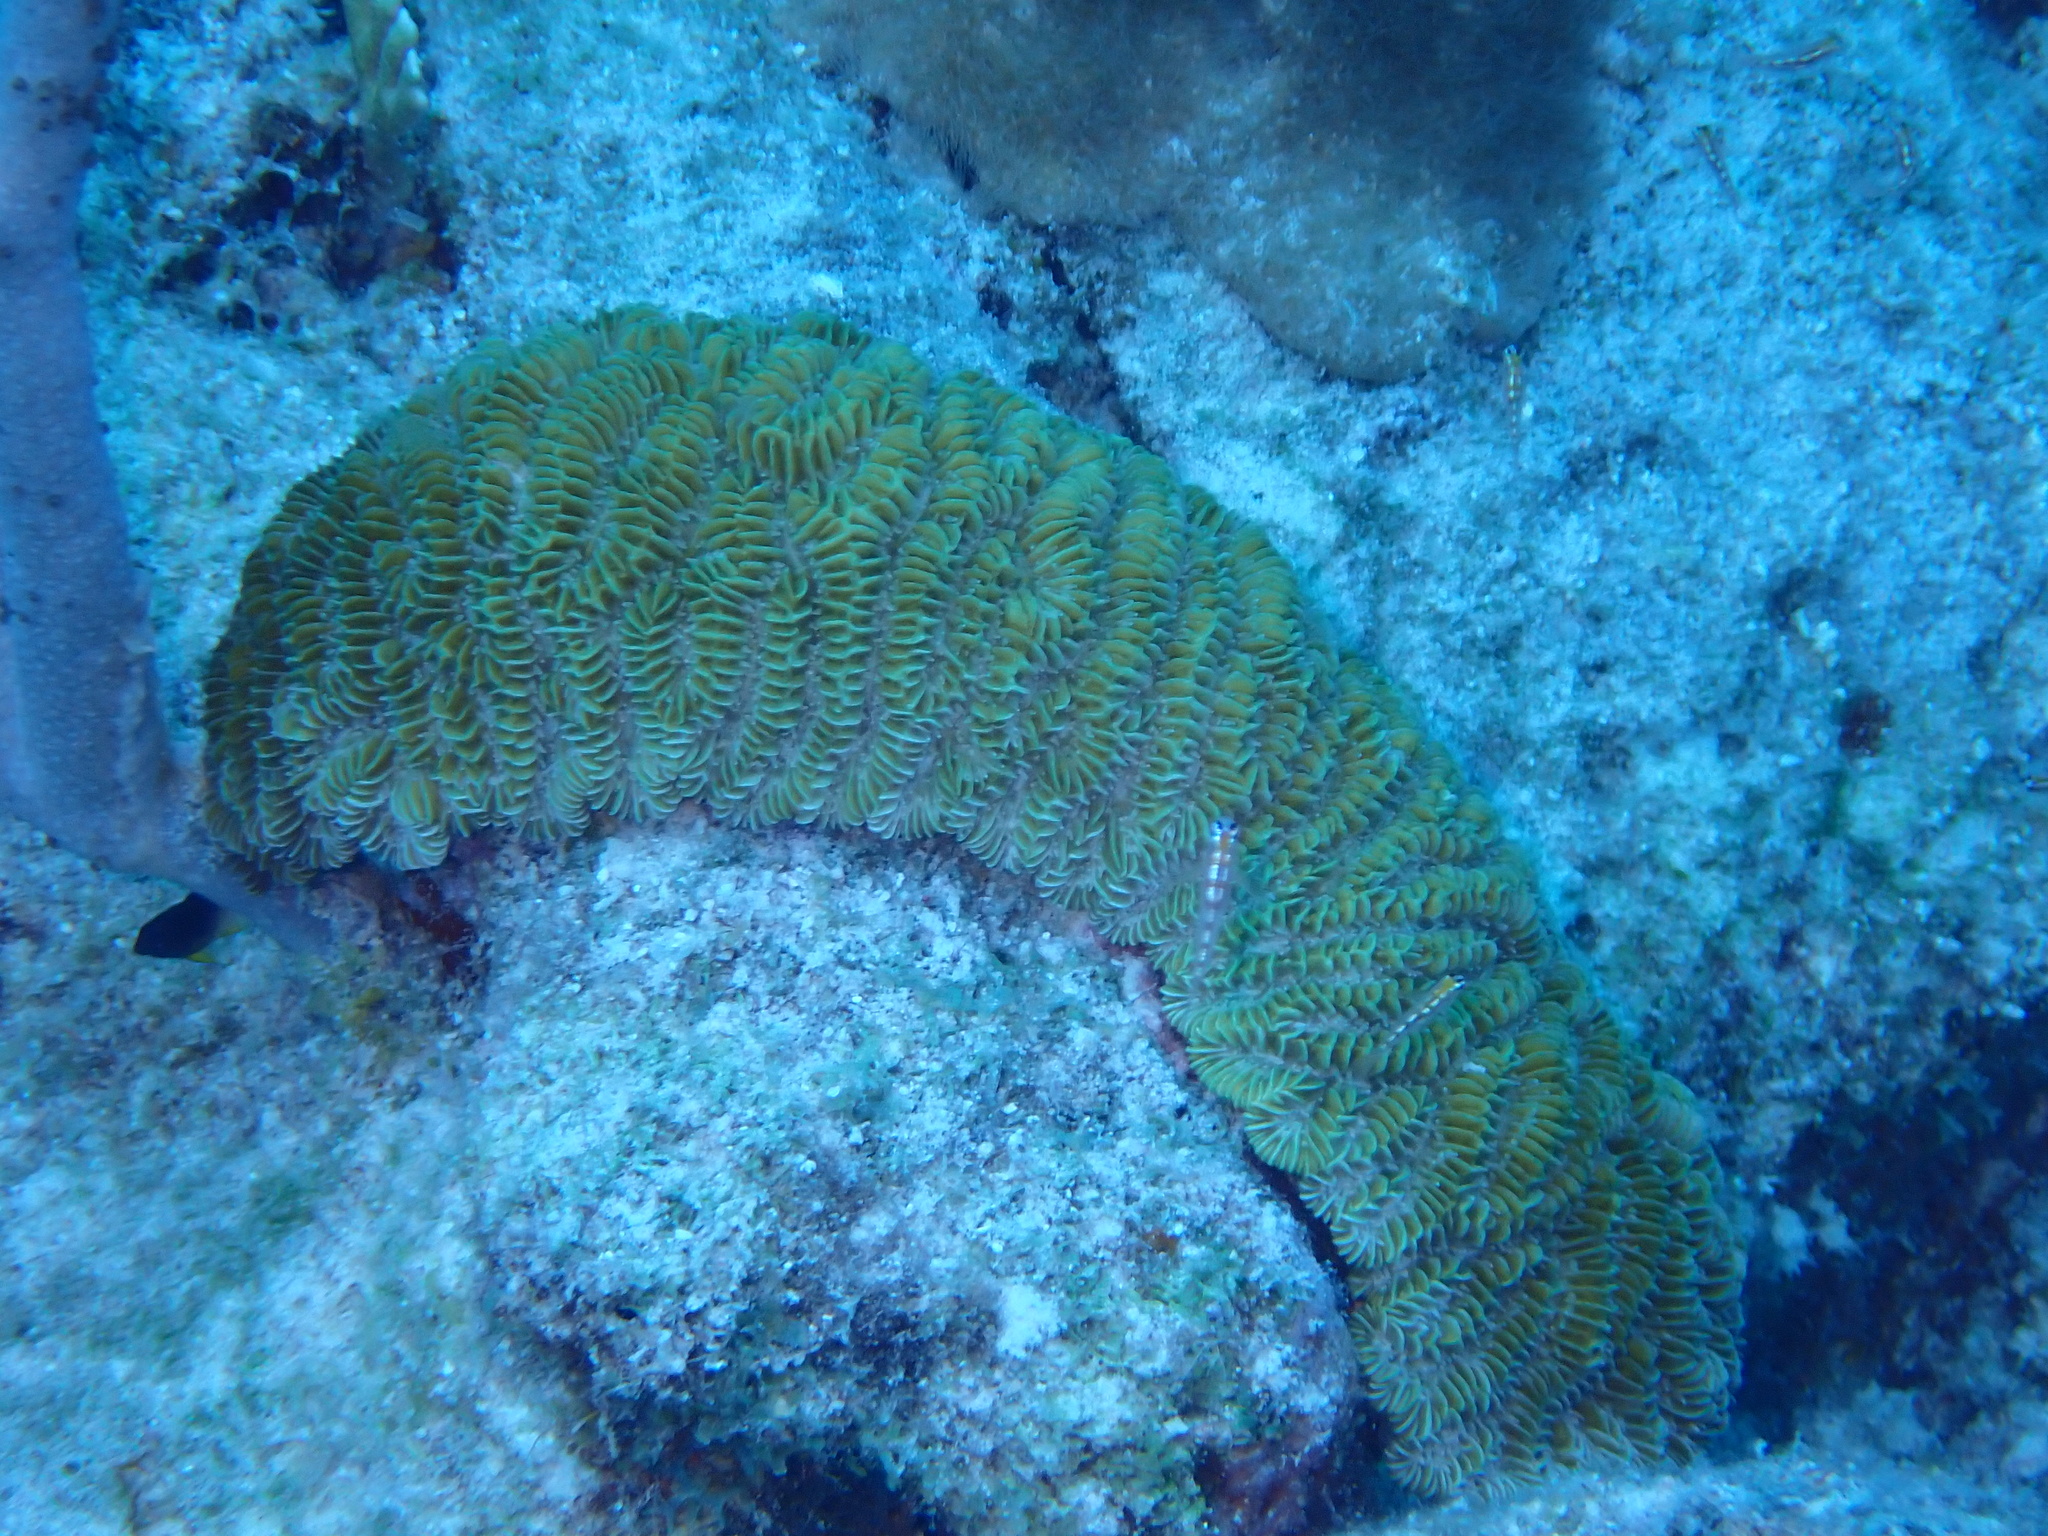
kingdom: Animalia
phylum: Cnidaria
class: Anthozoa
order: Scleractinia
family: Meandrinidae
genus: Meandrina
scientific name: Meandrina meandrites
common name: Maze coral
